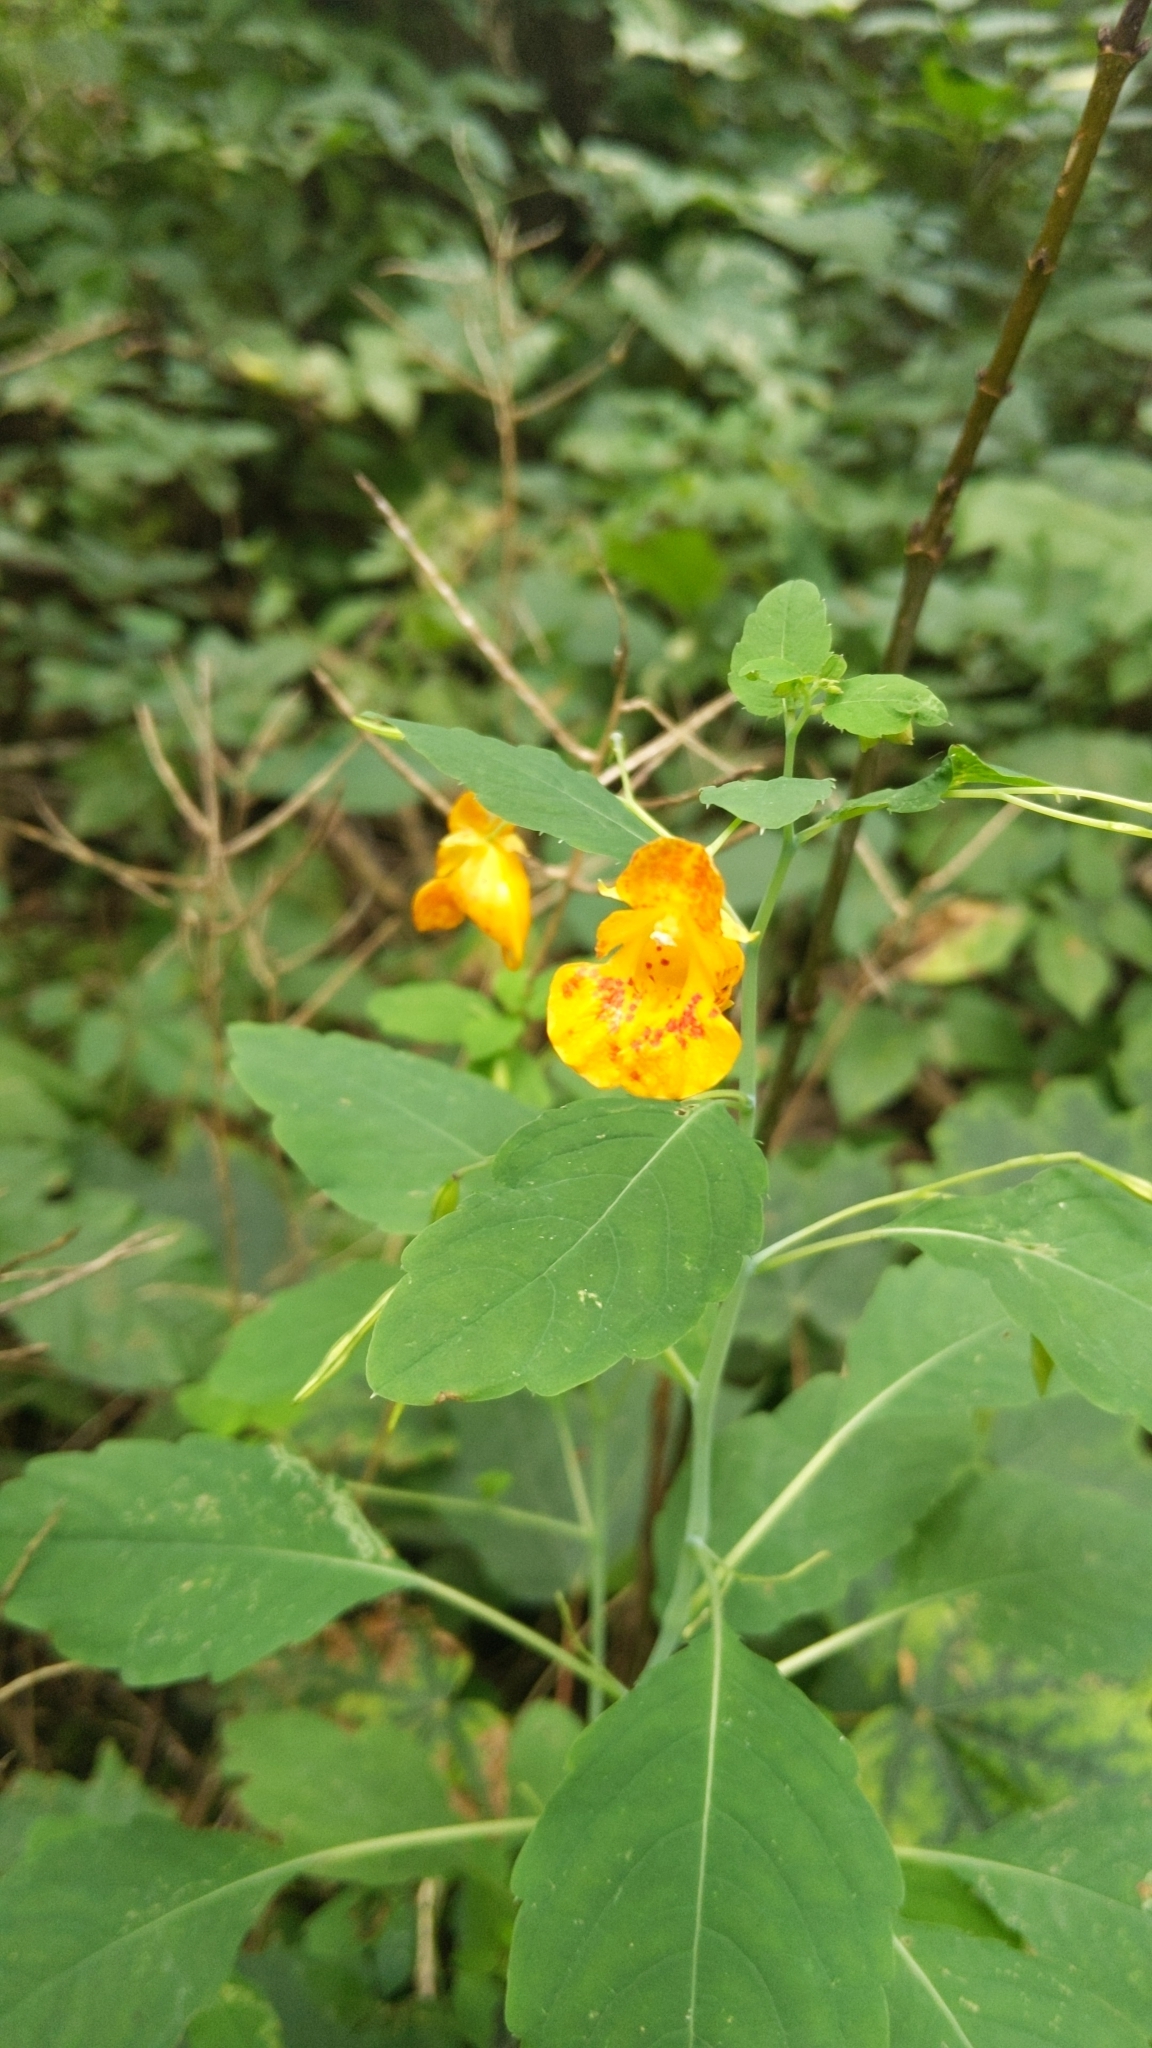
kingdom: Plantae
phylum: Tracheophyta
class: Magnoliopsida
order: Ericales
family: Balsaminaceae
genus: Impatiens
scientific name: Impatiens capensis
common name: Orange balsam
